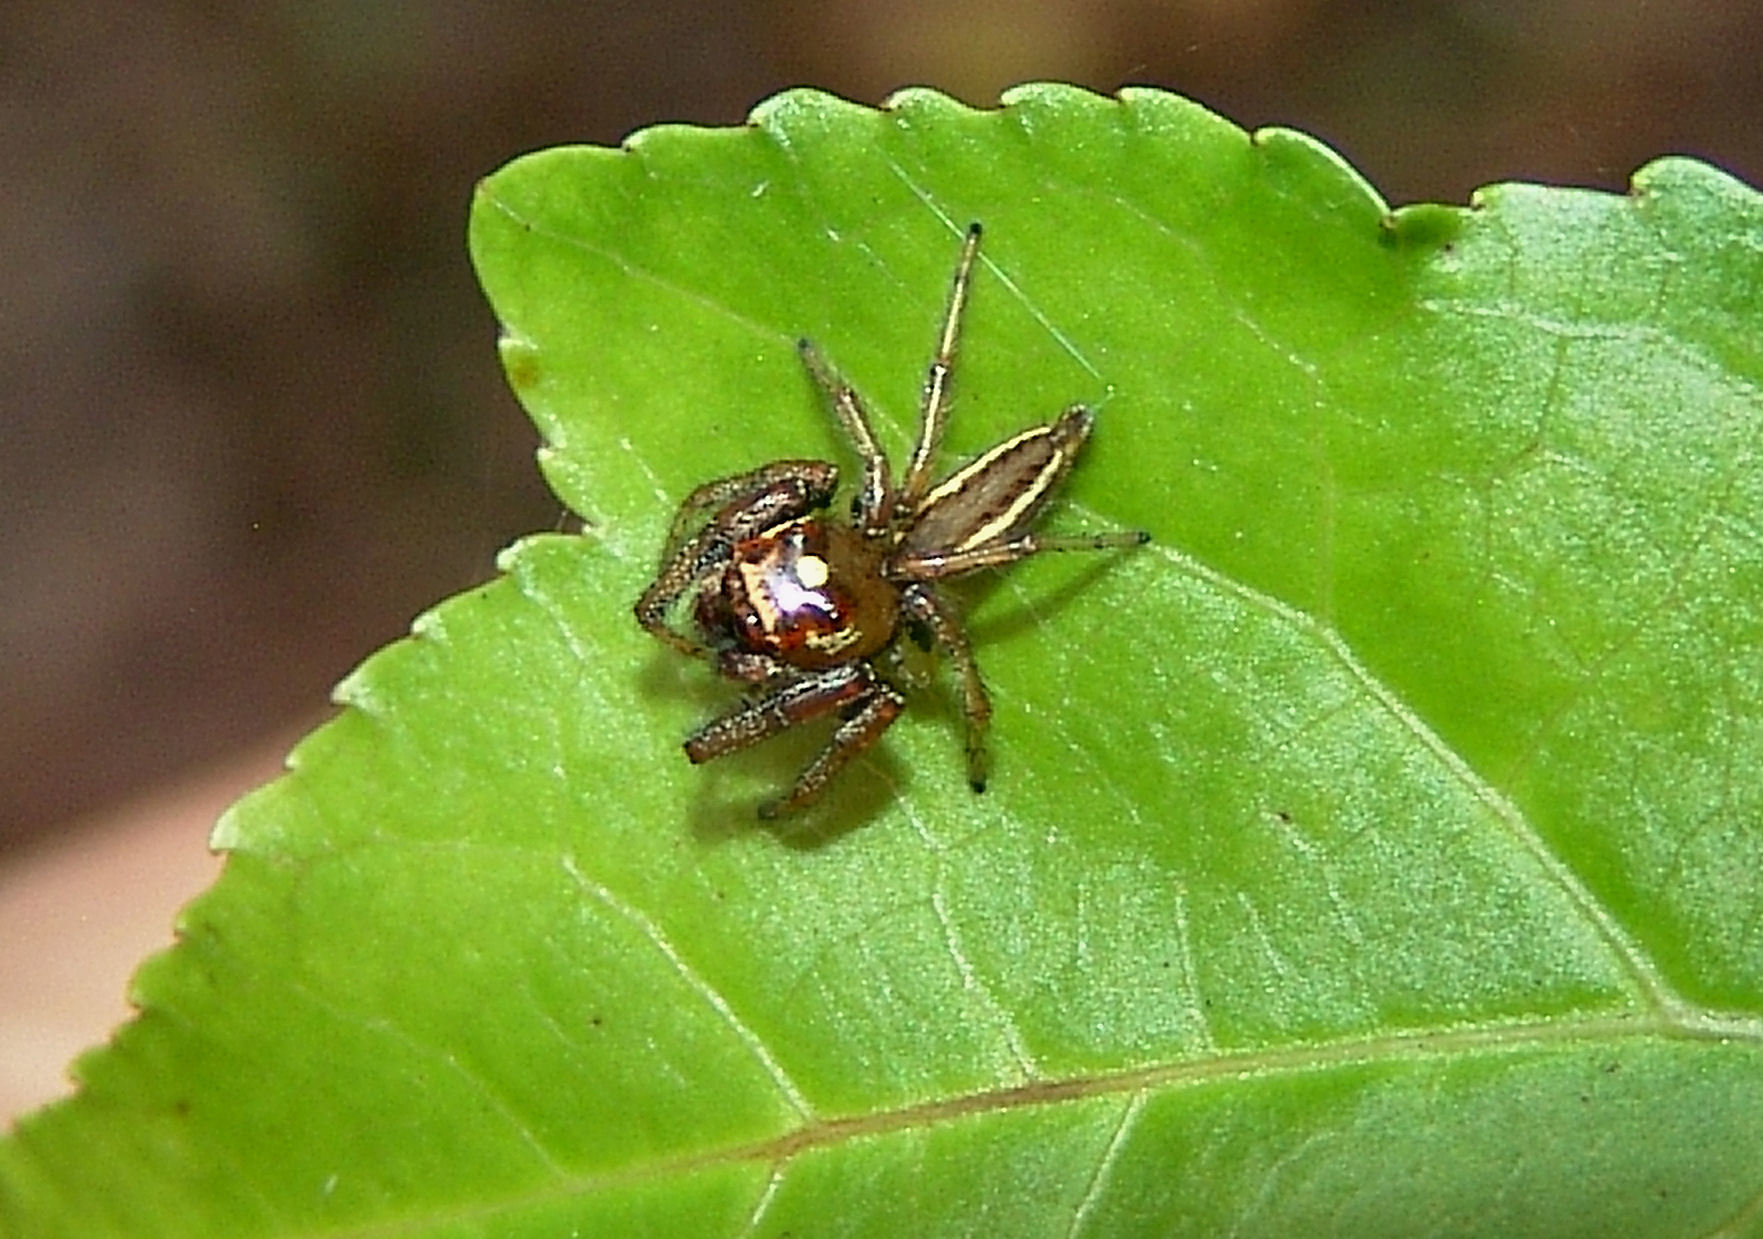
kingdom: Animalia
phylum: Arthropoda
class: Arachnida
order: Araneae
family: Salticidae
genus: Colonus
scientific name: Colonus sylvanus
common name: Jumping spiders
